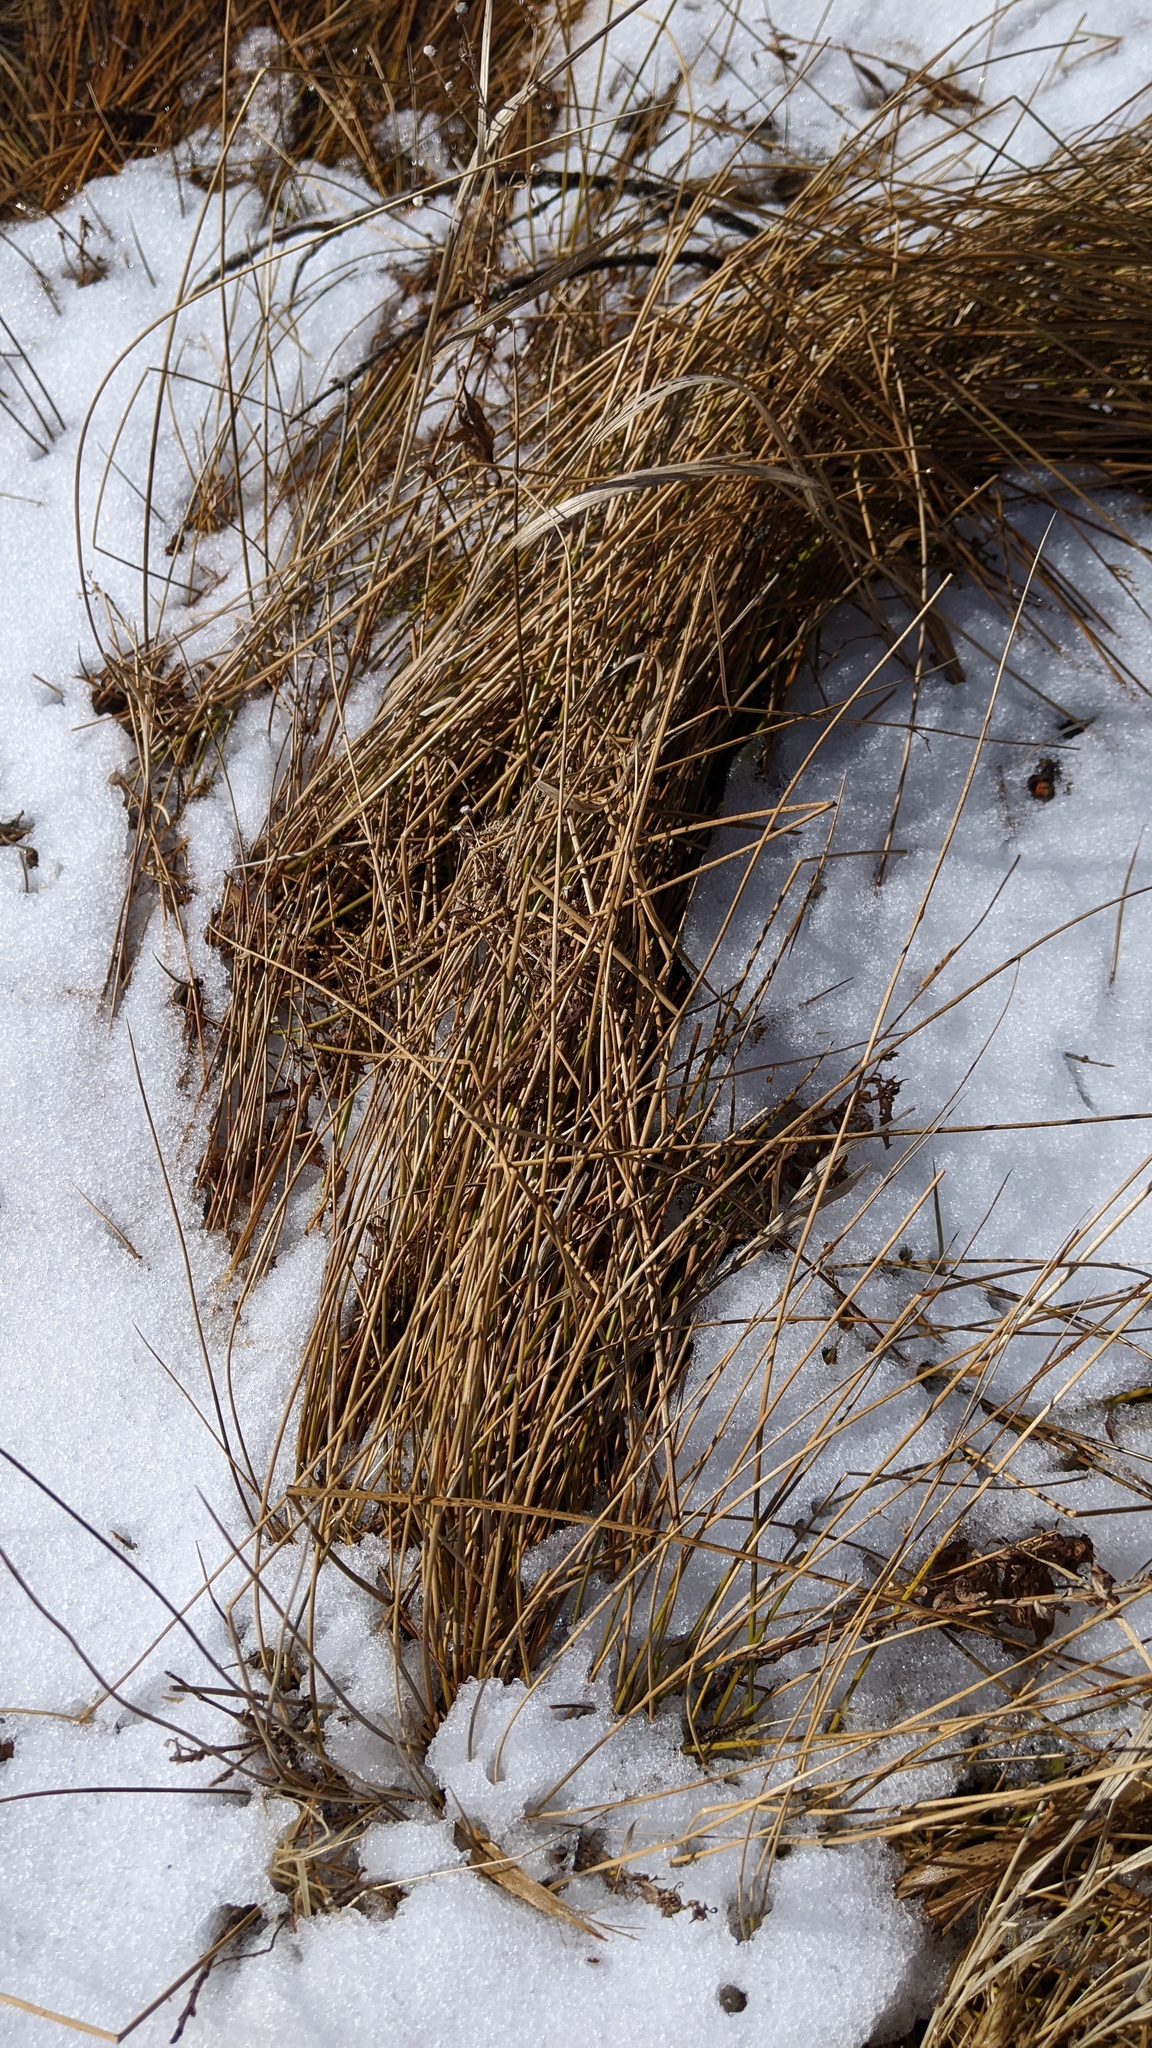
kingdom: Plantae
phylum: Tracheophyta
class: Liliopsida
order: Poales
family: Juncaceae
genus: Juncus
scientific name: Juncus effusus
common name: Soft rush
